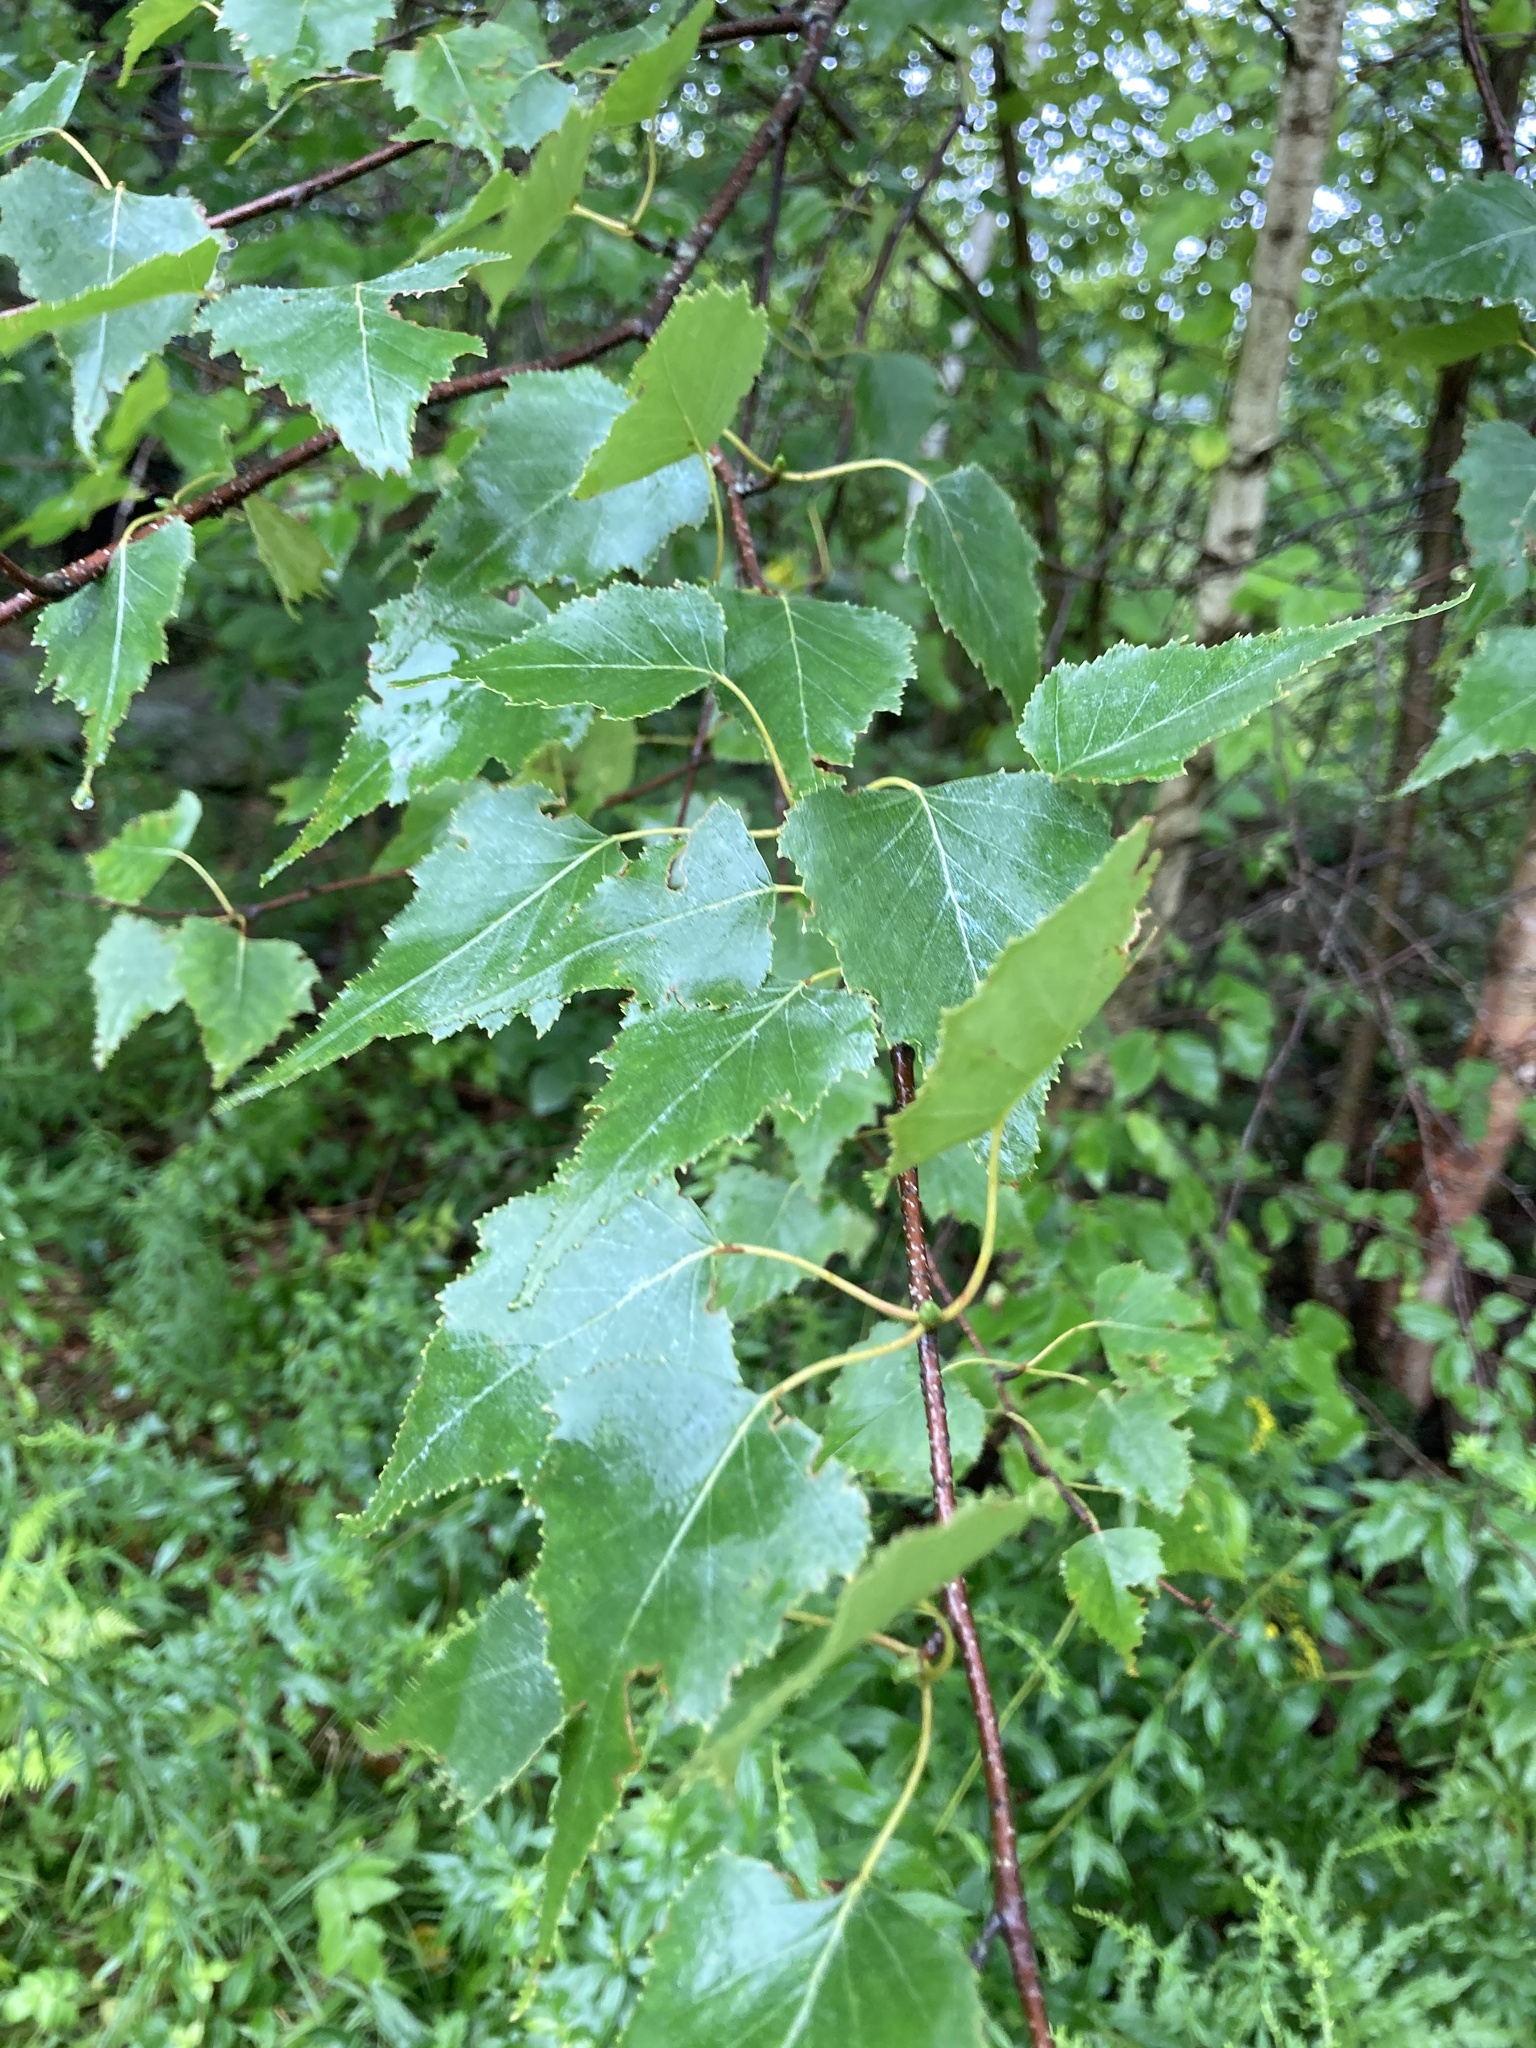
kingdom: Plantae
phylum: Tracheophyta
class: Magnoliopsida
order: Fagales
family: Betulaceae
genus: Betula
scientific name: Betula populifolia
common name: Fire birch
